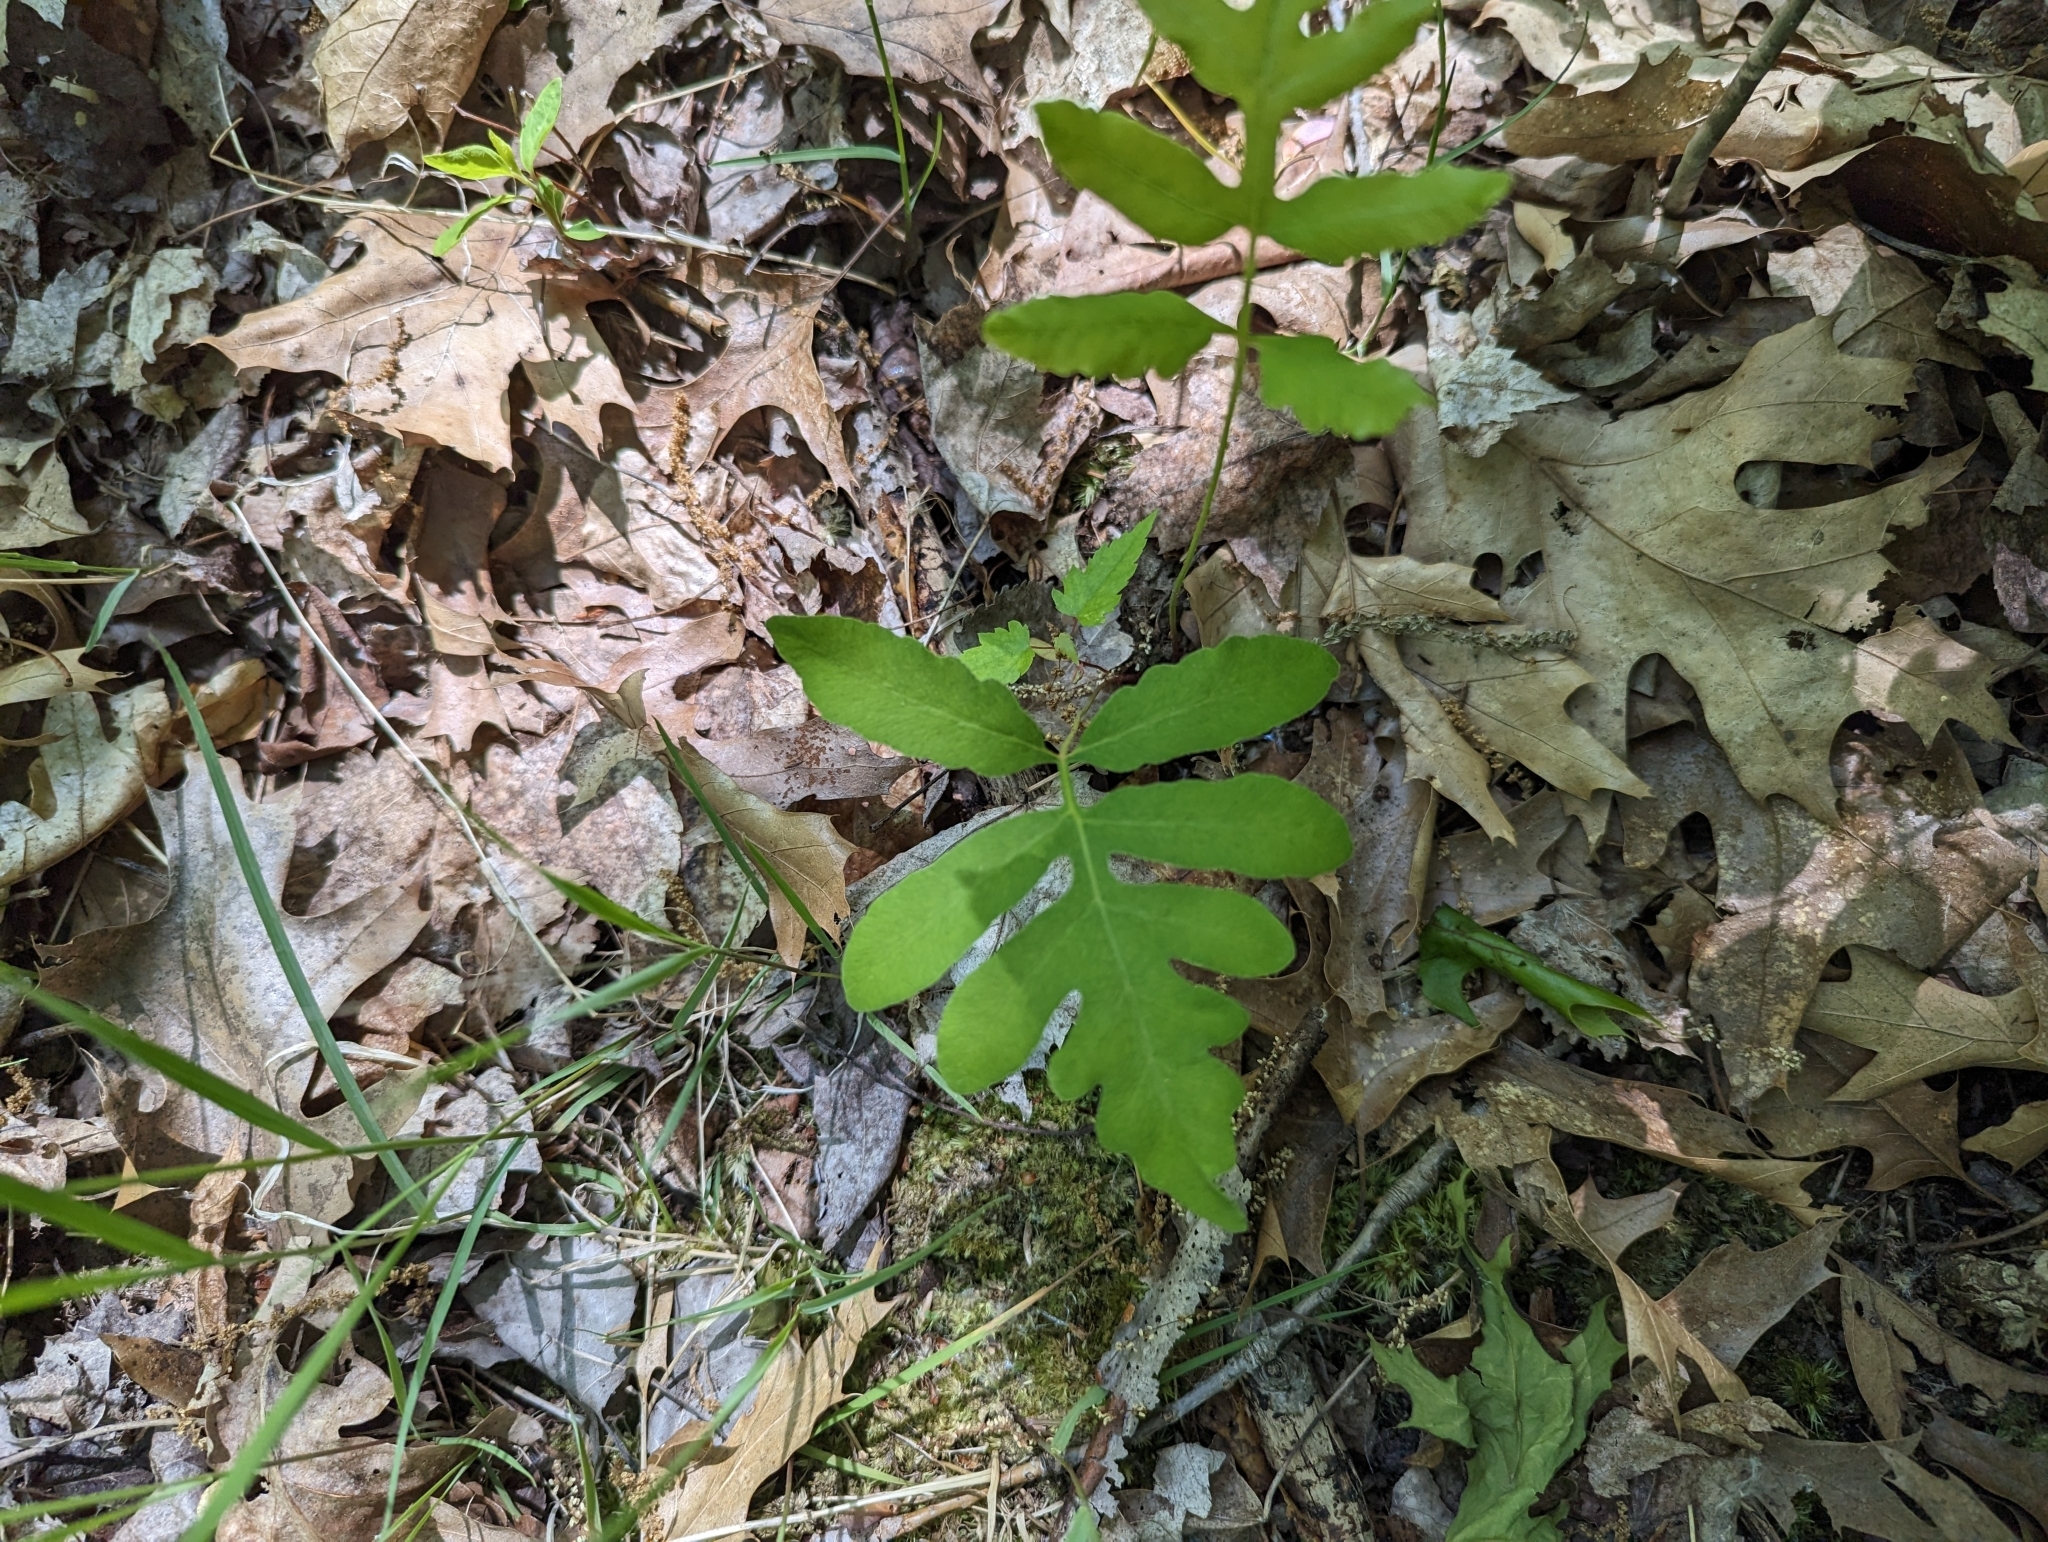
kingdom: Plantae
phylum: Tracheophyta
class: Polypodiopsida
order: Polypodiales
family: Onocleaceae
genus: Onoclea
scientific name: Onoclea sensibilis
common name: Sensitive fern
